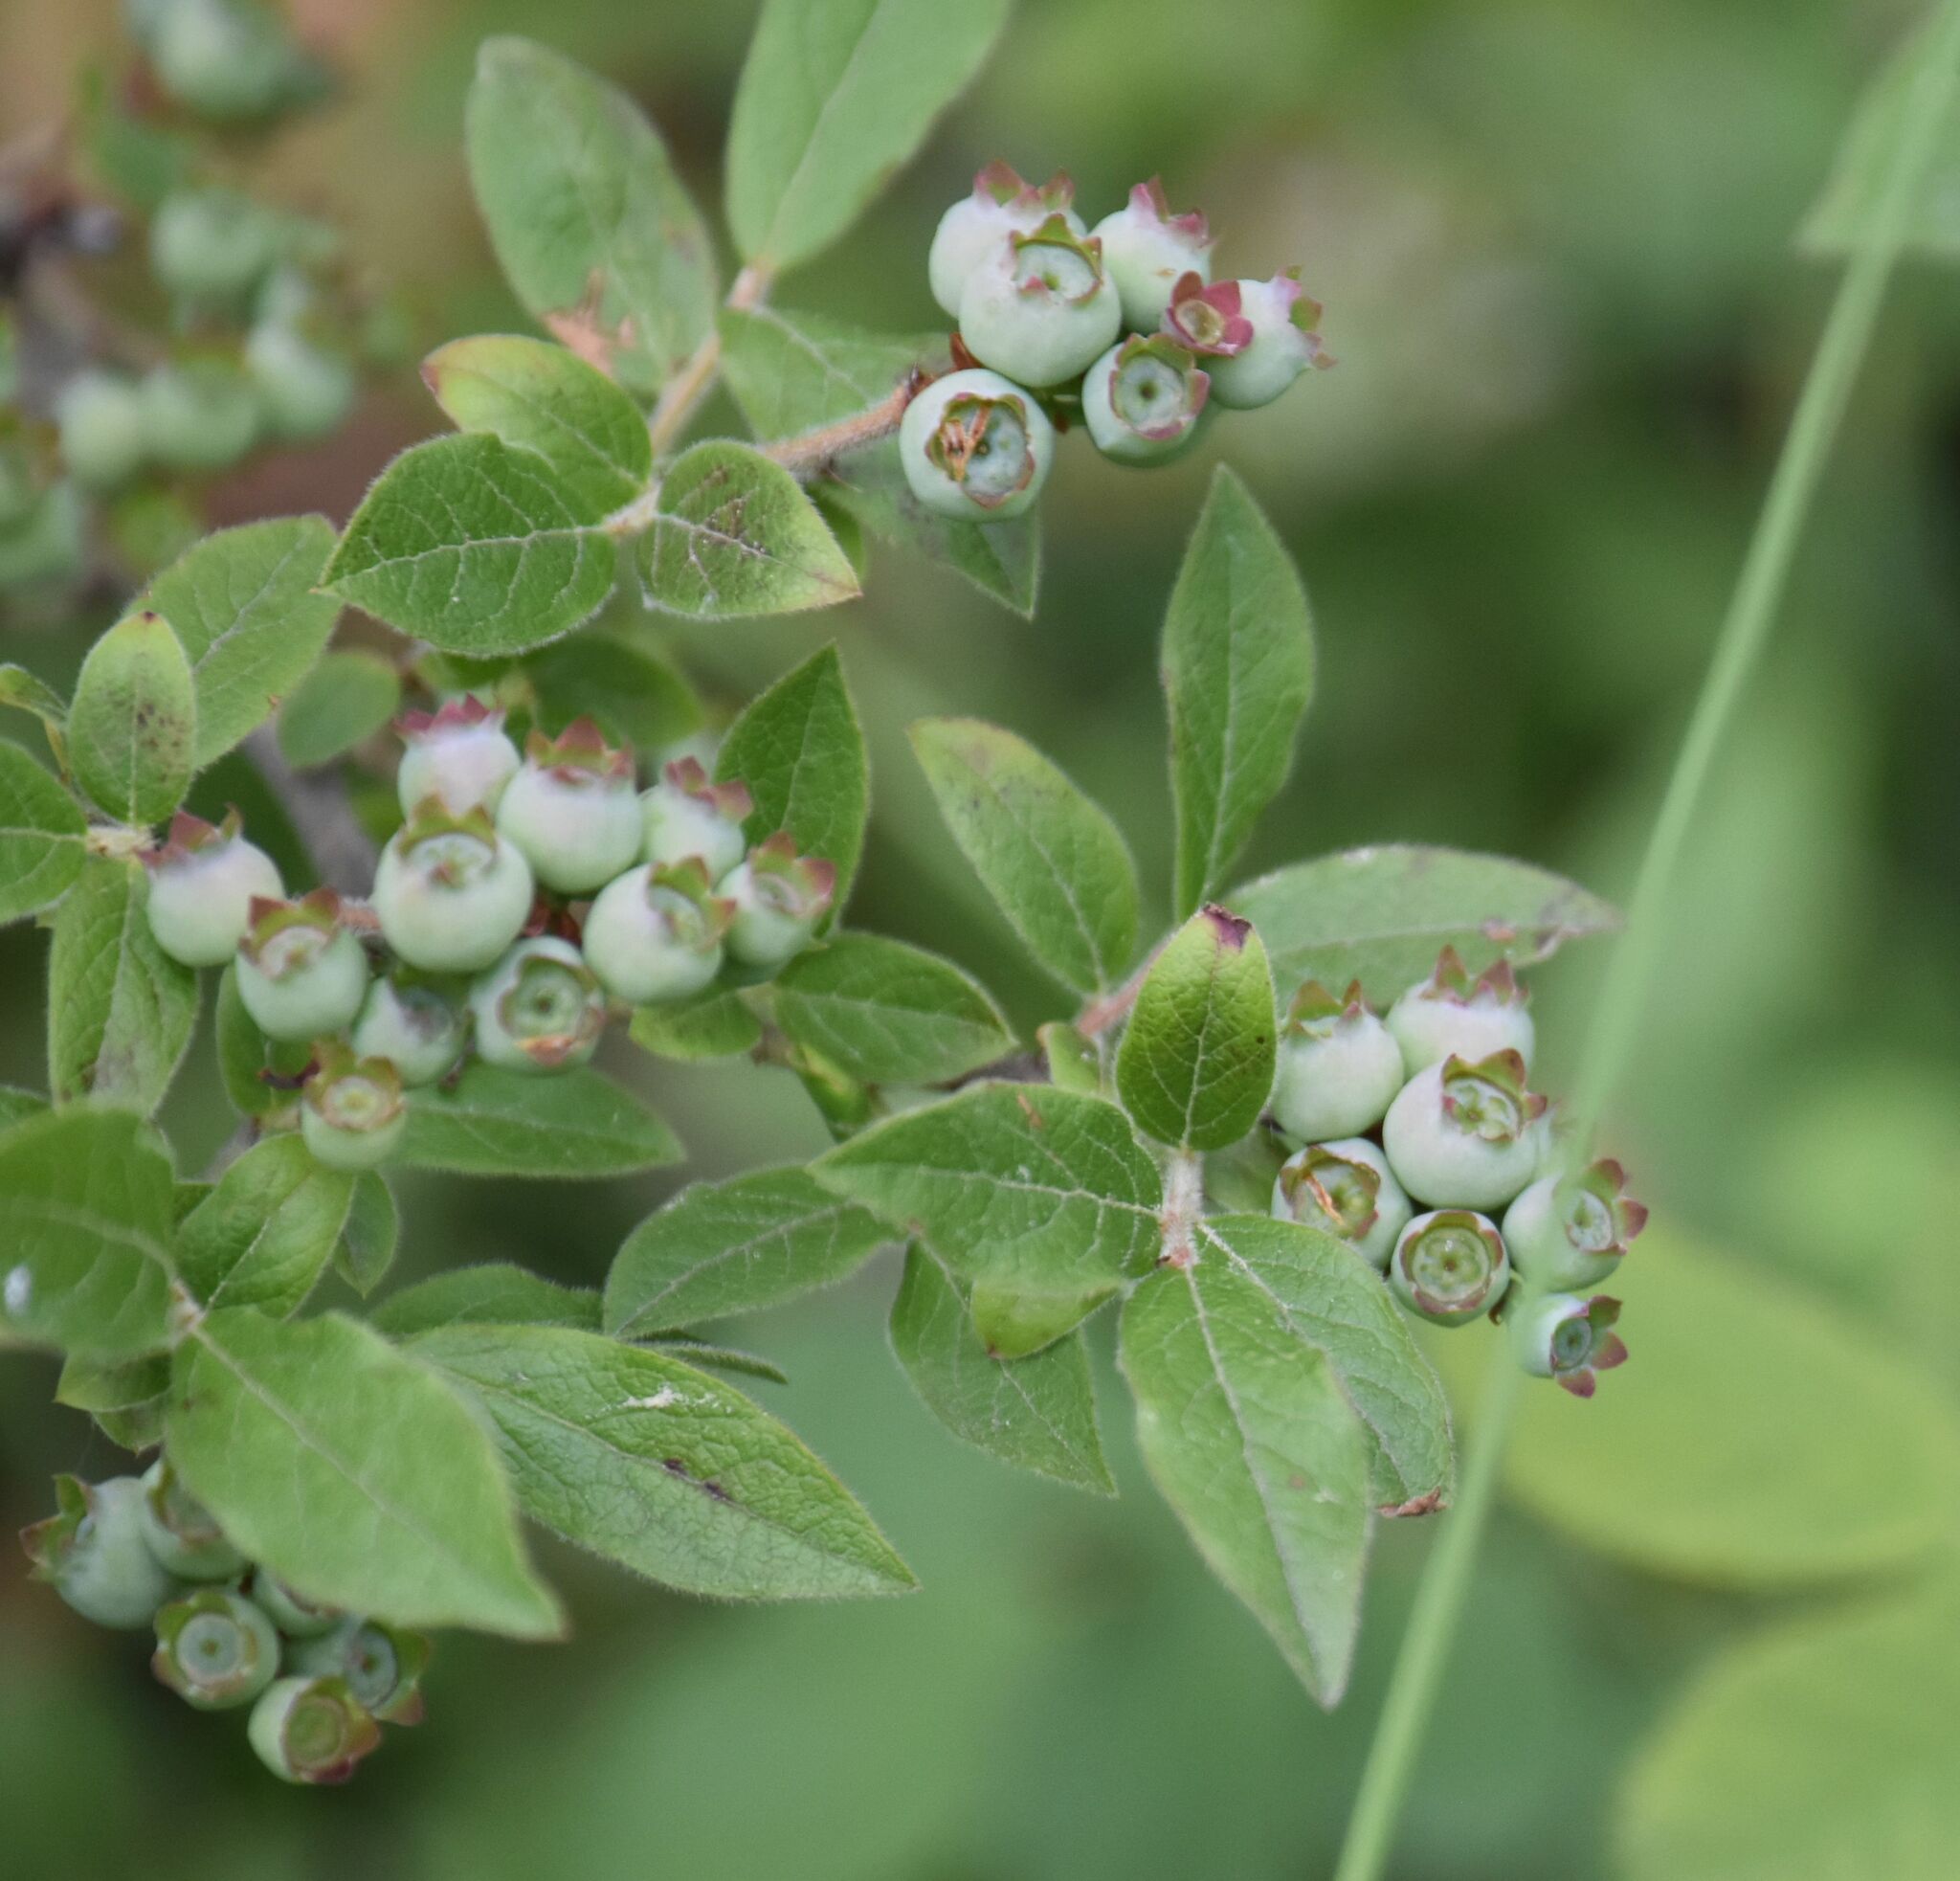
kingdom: Plantae
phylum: Tracheophyta
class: Magnoliopsida
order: Ericales
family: Ericaceae
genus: Vaccinium
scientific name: Vaccinium myrtilloides
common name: Canada blueberry
